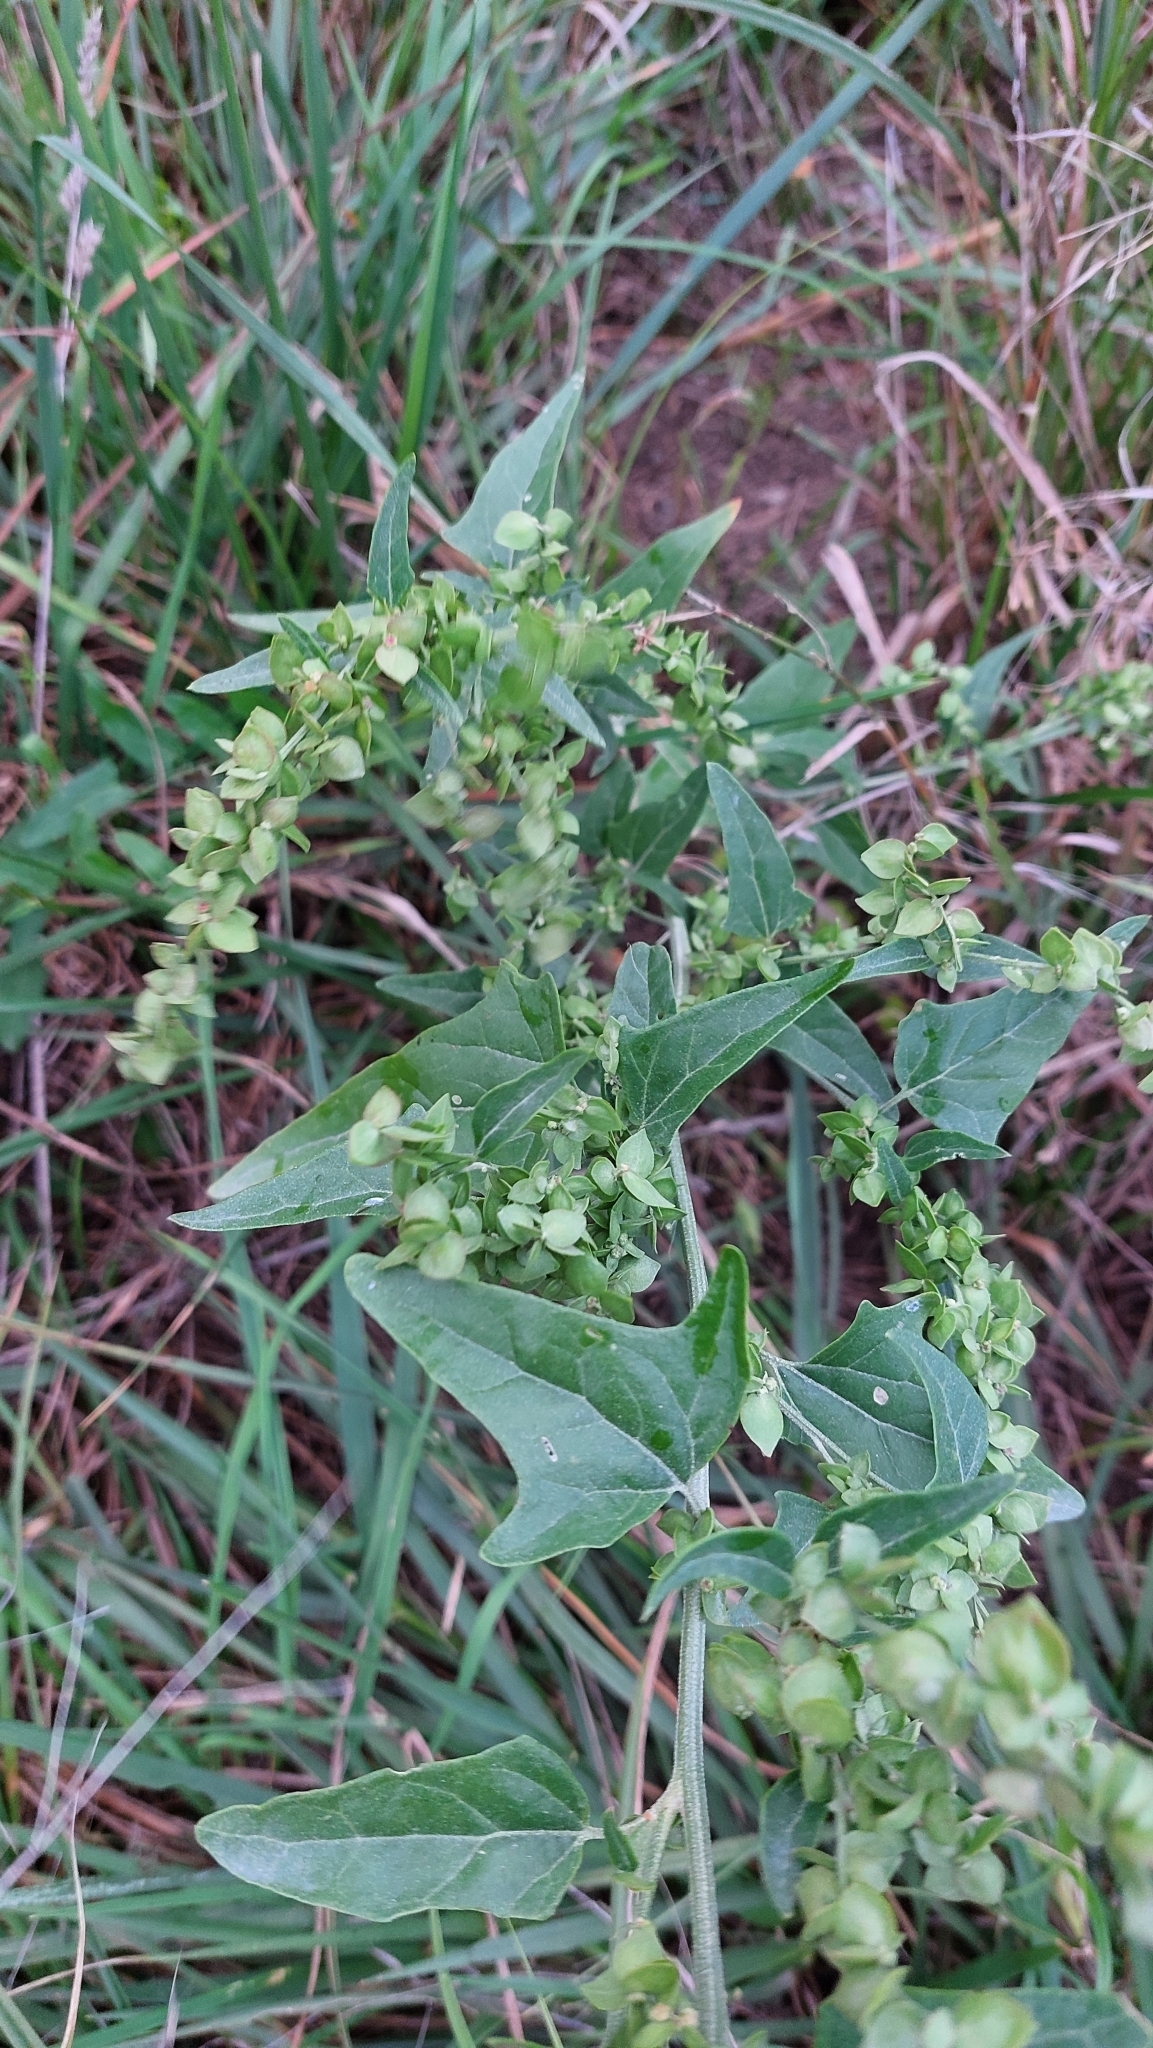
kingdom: Plantae
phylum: Tracheophyta
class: Magnoliopsida
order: Caryophyllales
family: Amaranthaceae
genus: Atriplex
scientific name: Atriplex sagittata
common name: Purple orache
